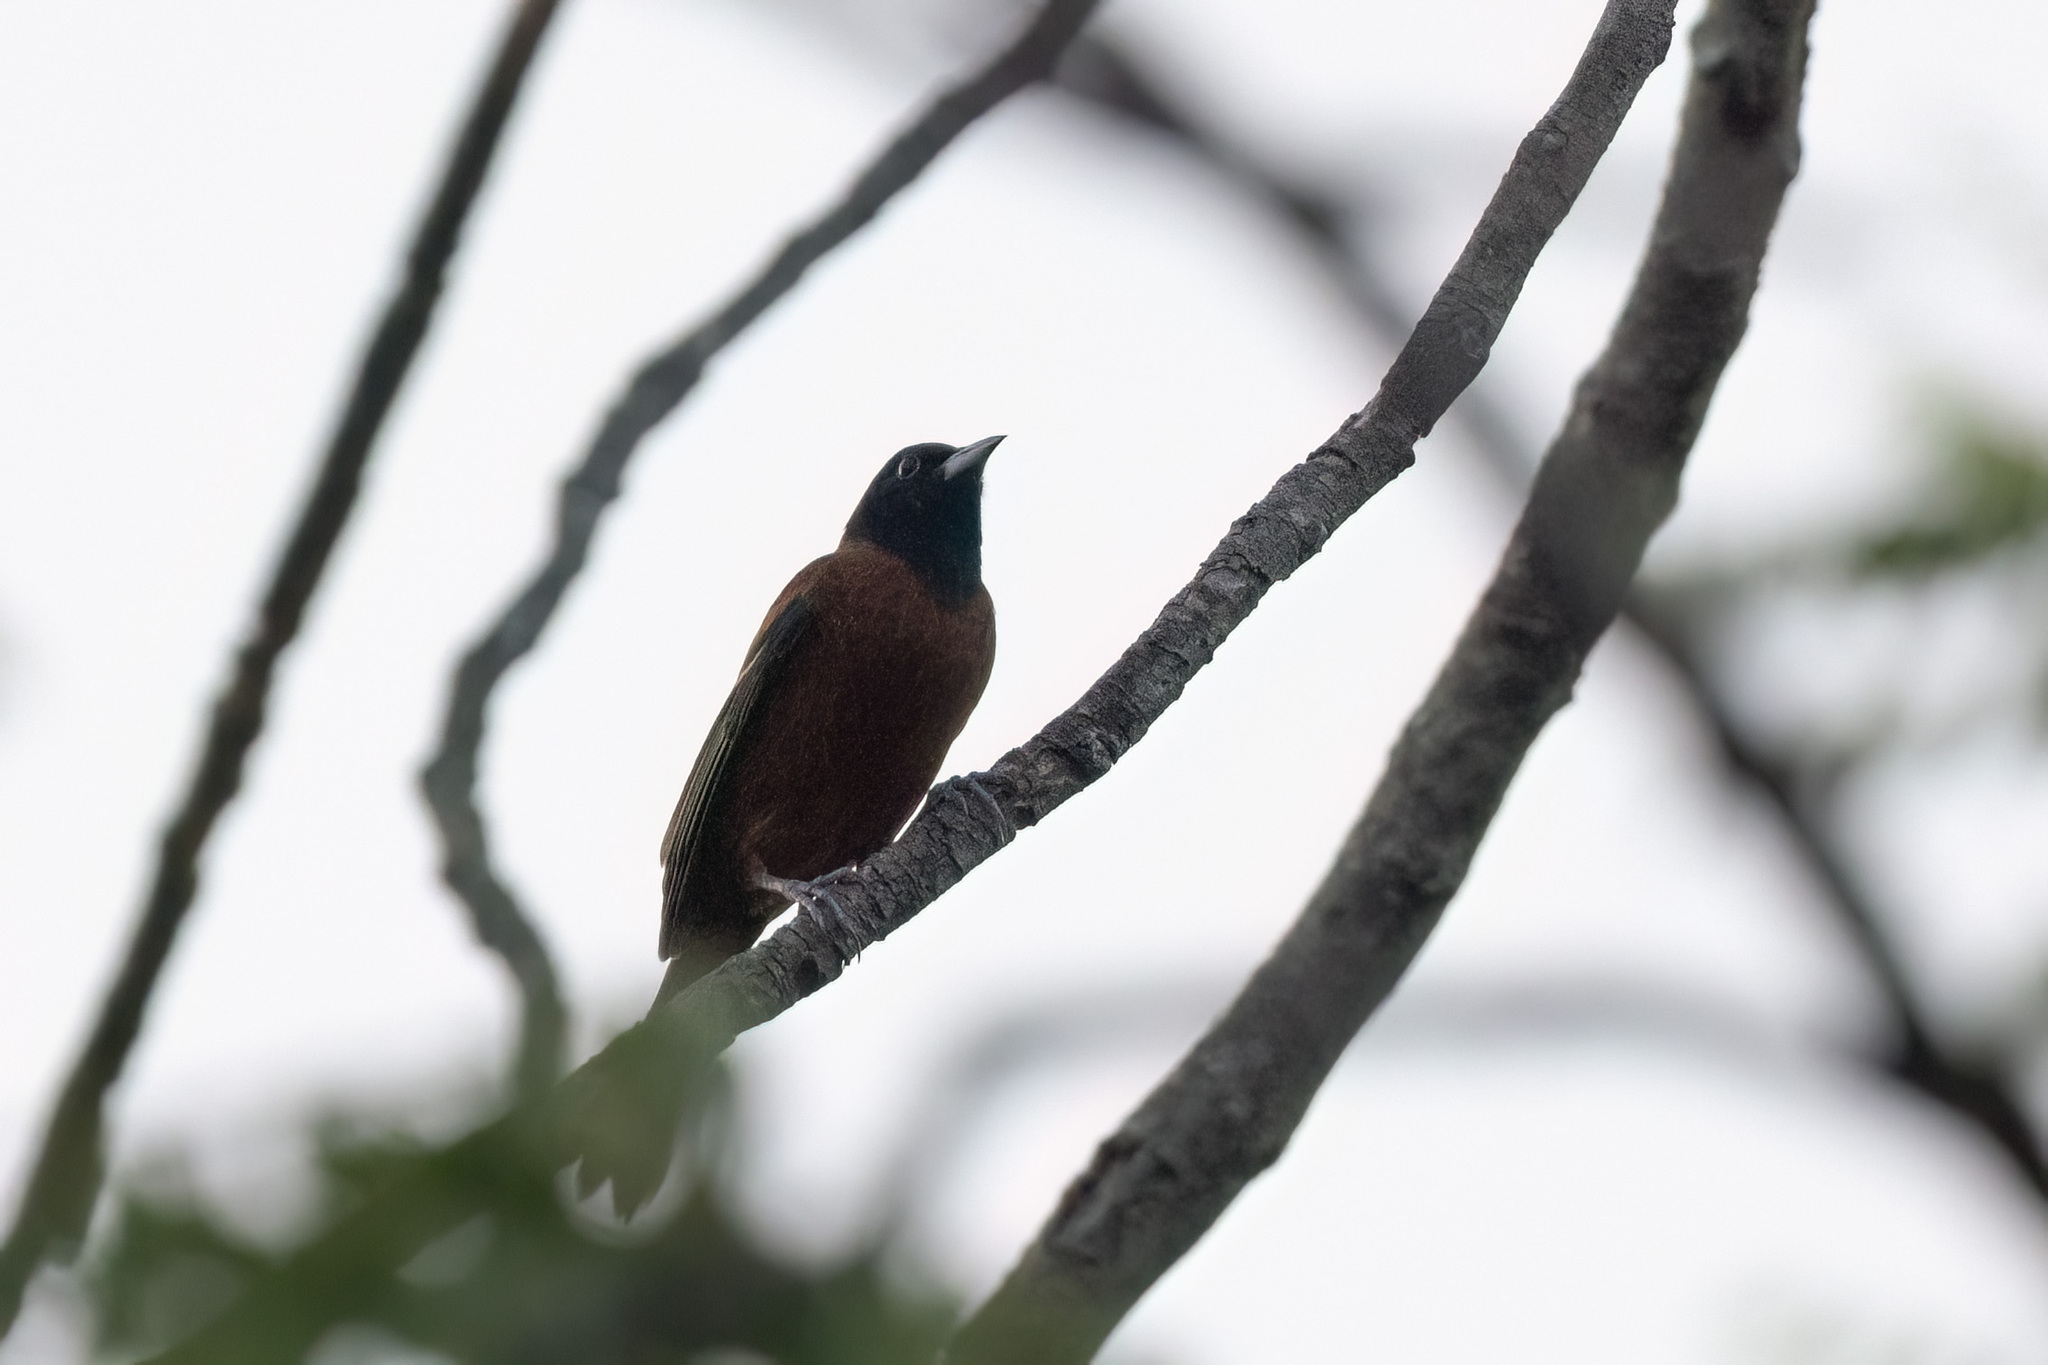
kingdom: Animalia
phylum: Chordata
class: Aves
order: Passeriformes
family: Icteridae
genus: Icterus
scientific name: Icterus spurius
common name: Orchard oriole
